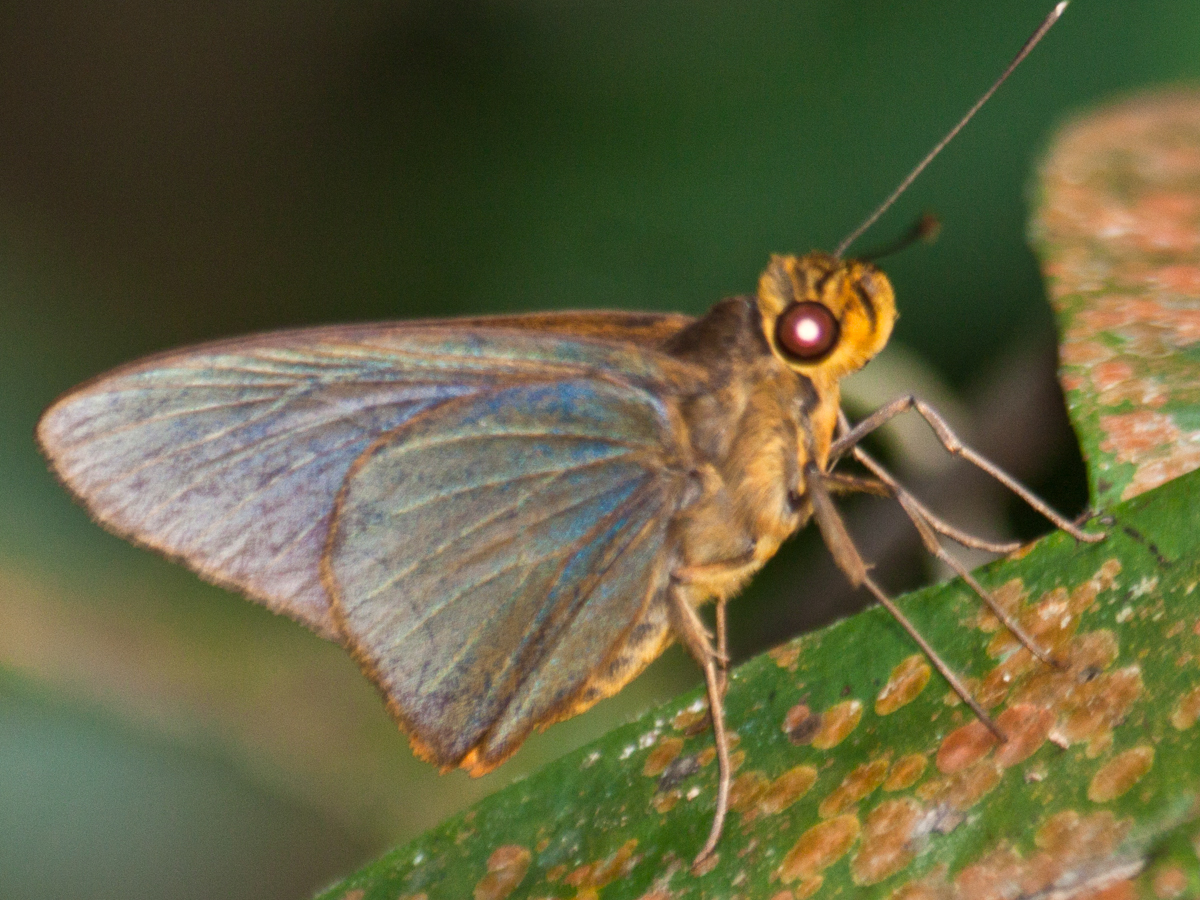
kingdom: Animalia
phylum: Arthropoda
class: Insecta
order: Lepidoptera
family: Hesperiidae
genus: Pirdana
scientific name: Pirdana distanti
